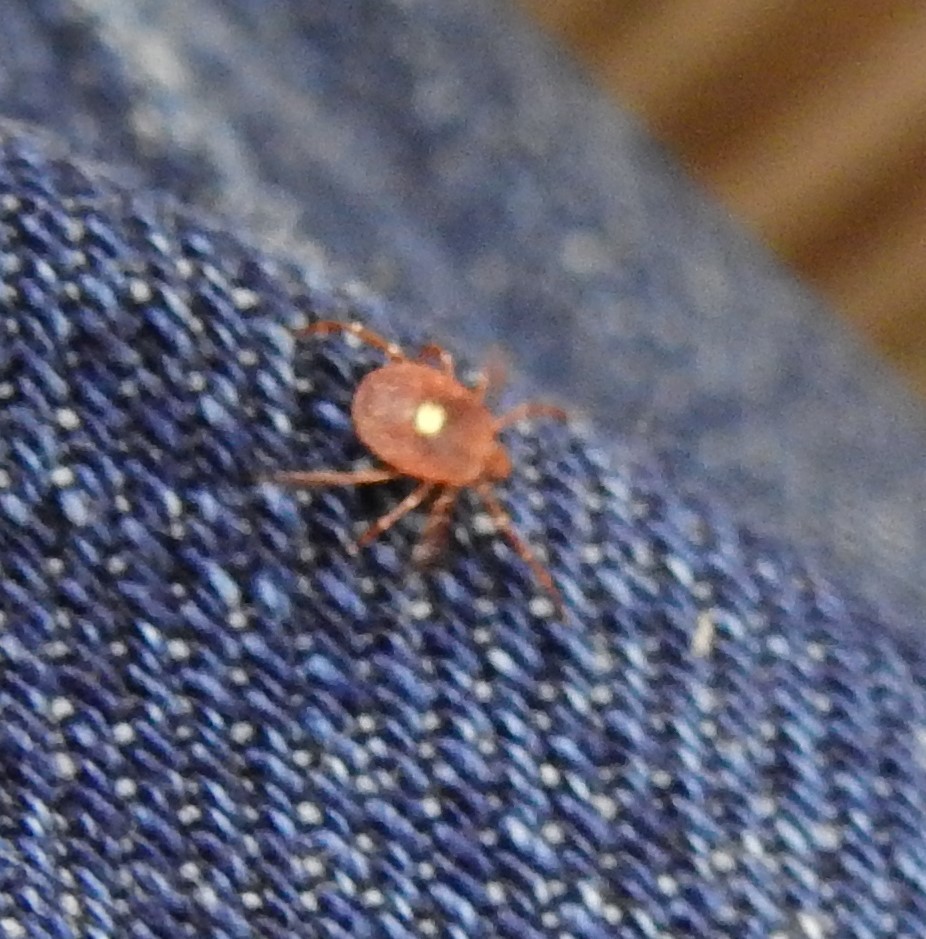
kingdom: Animalia
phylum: Arthropoda
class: Arachnida
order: Ixodida
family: Ixodidae
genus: Amblyomma
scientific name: Amblyomma americanum
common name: Lone star tick
